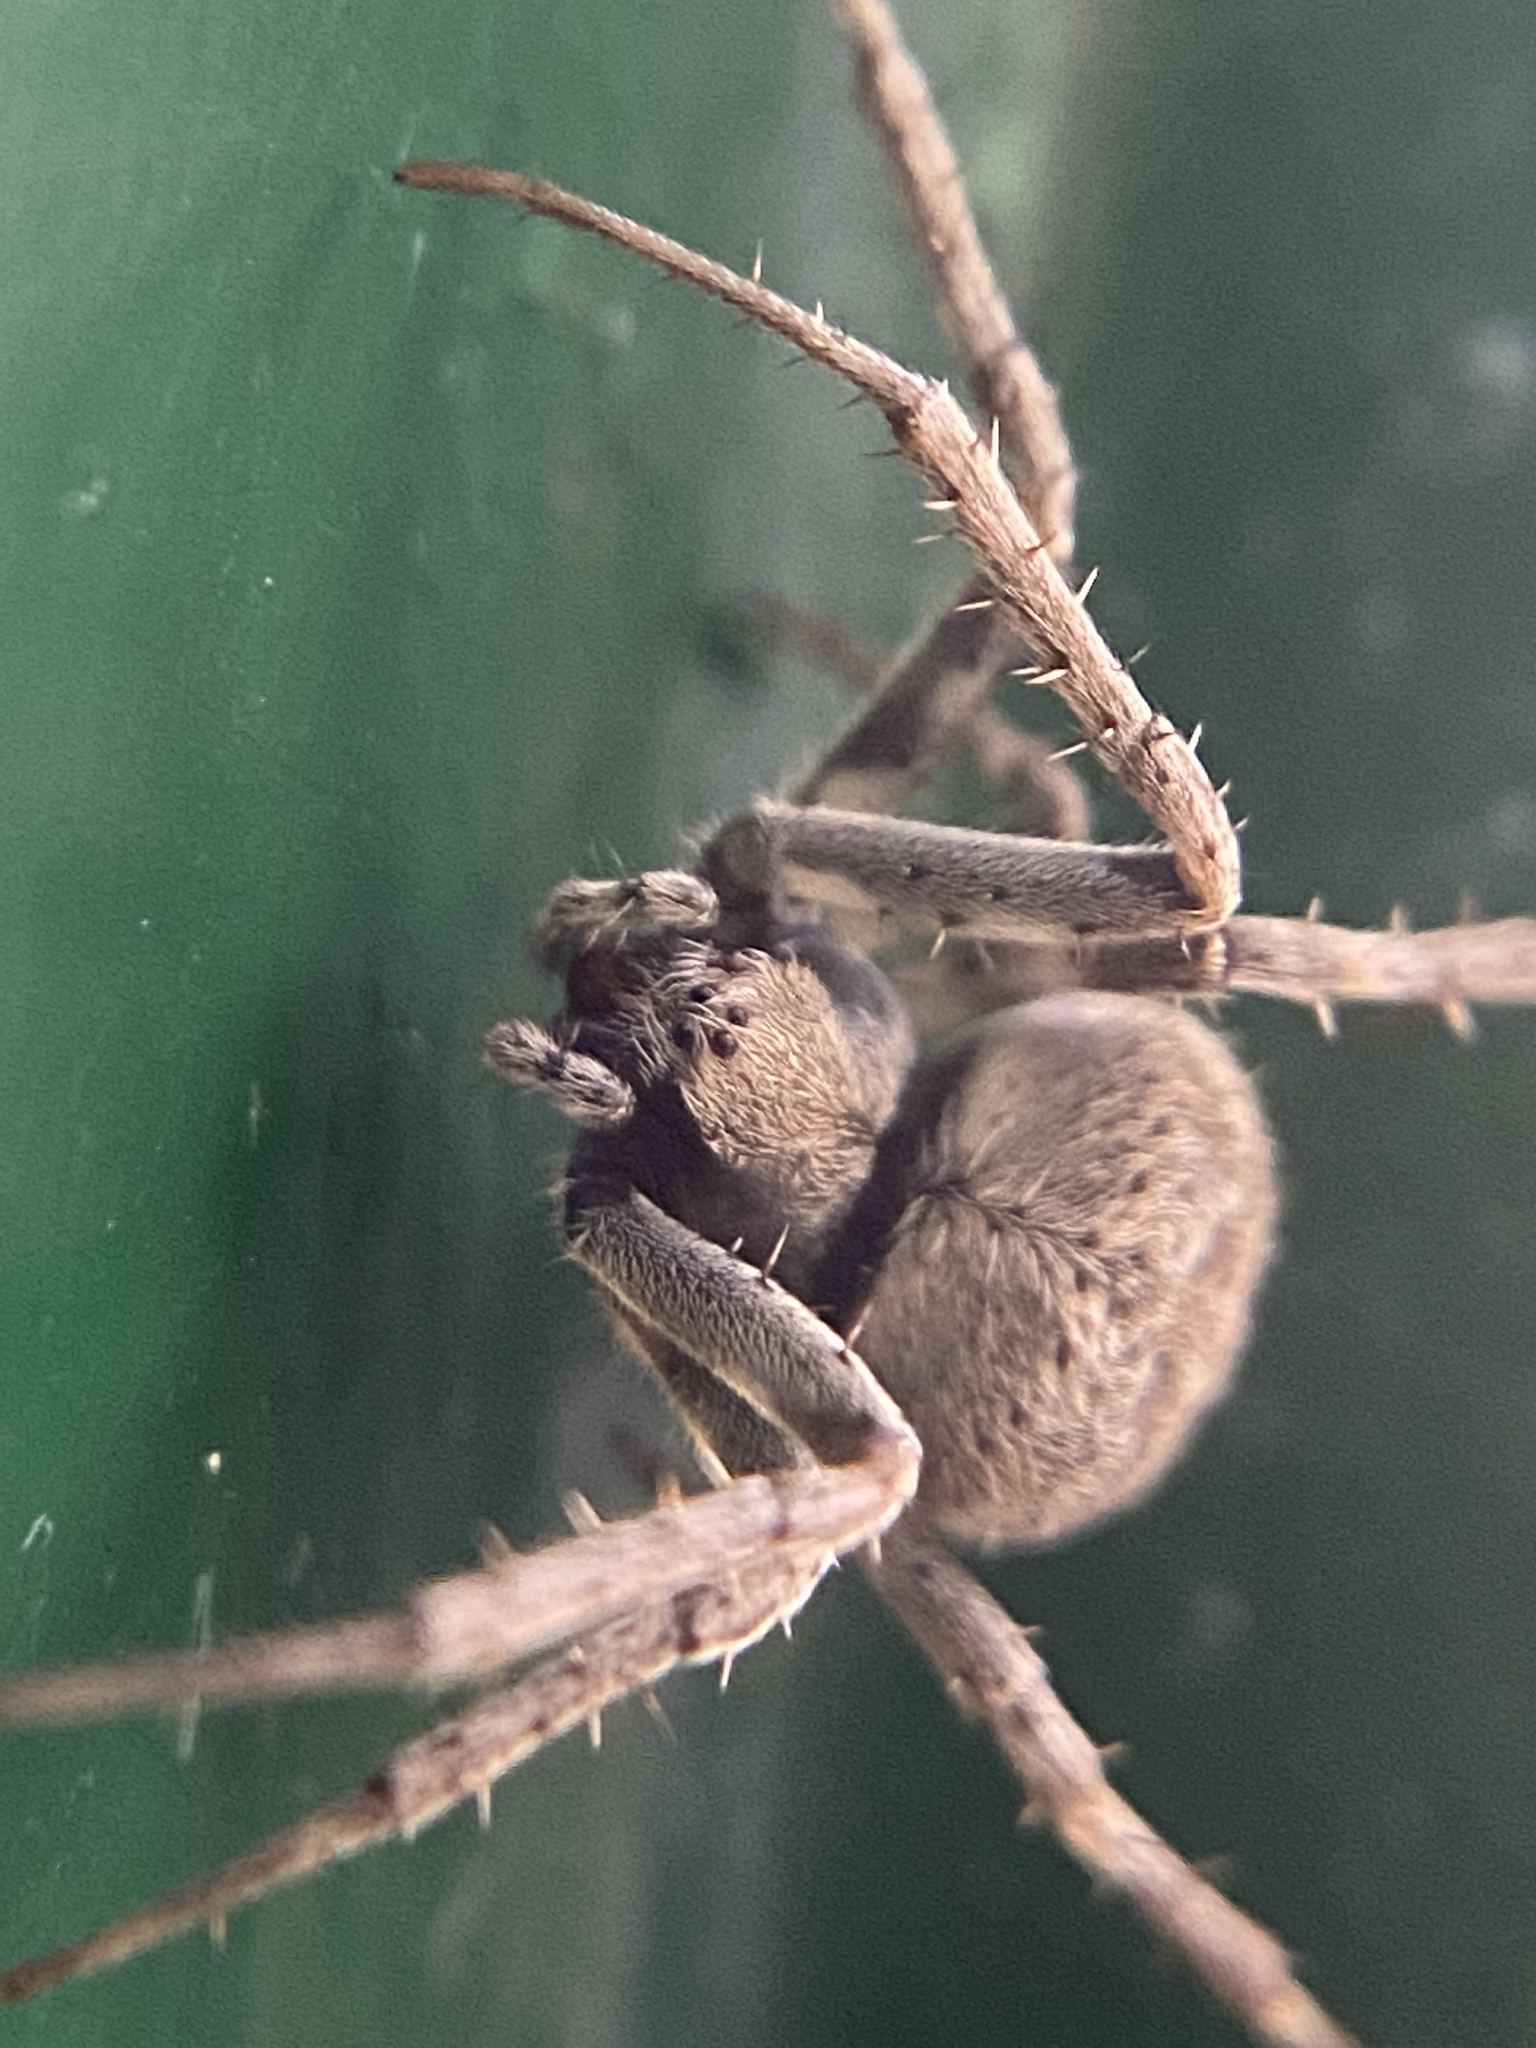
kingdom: Animalia
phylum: Arthropoda
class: Arachnida
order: Araneae
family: Araneidae
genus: Neoscona
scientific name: Neoscona nautica
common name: Orb weavers
